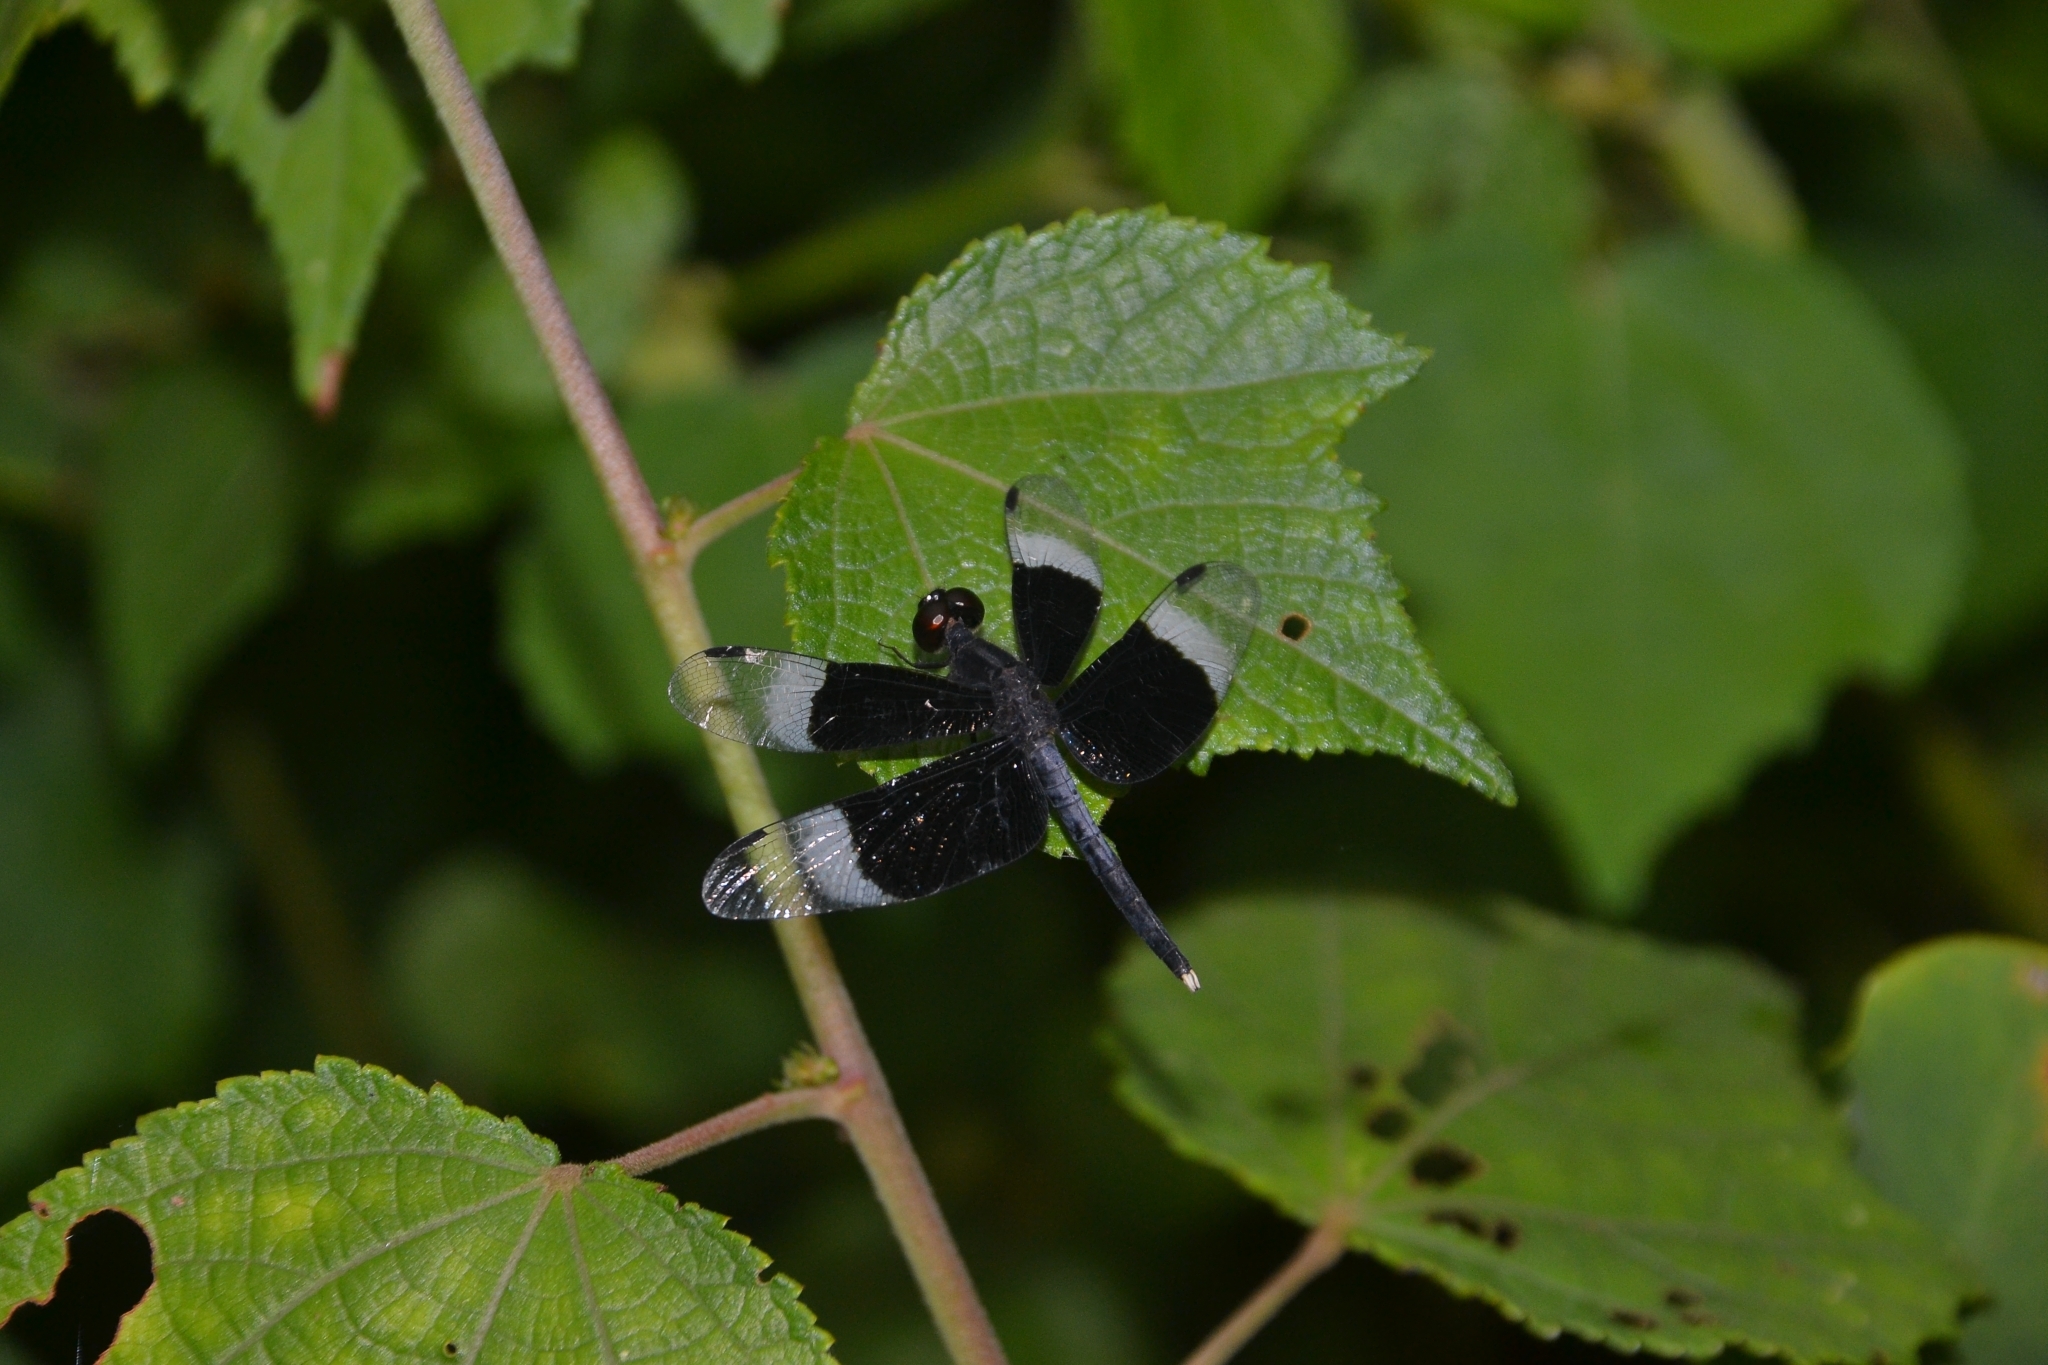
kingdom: Animalia
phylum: Arthropoda
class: Insecta
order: Odonata
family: Libellulidae
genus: Neurothemis
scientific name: Neurothemis tullia
